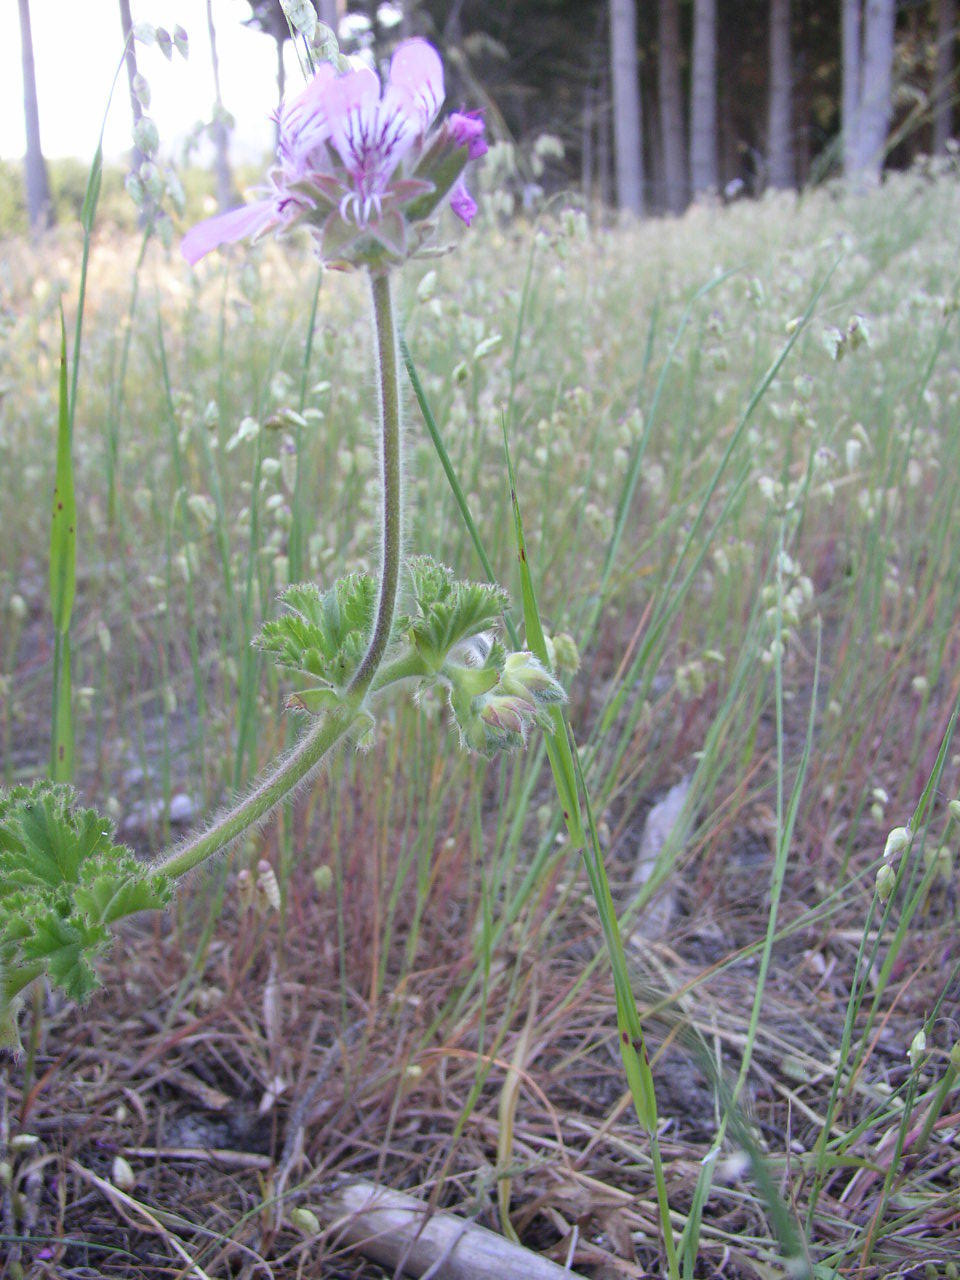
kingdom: Plantae
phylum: Tracheophyta
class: Magnoliopsida
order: Geraniales
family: Geraniaceae
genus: Pelargonium
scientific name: Pelargonium capitatum
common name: Rose scented geranium
